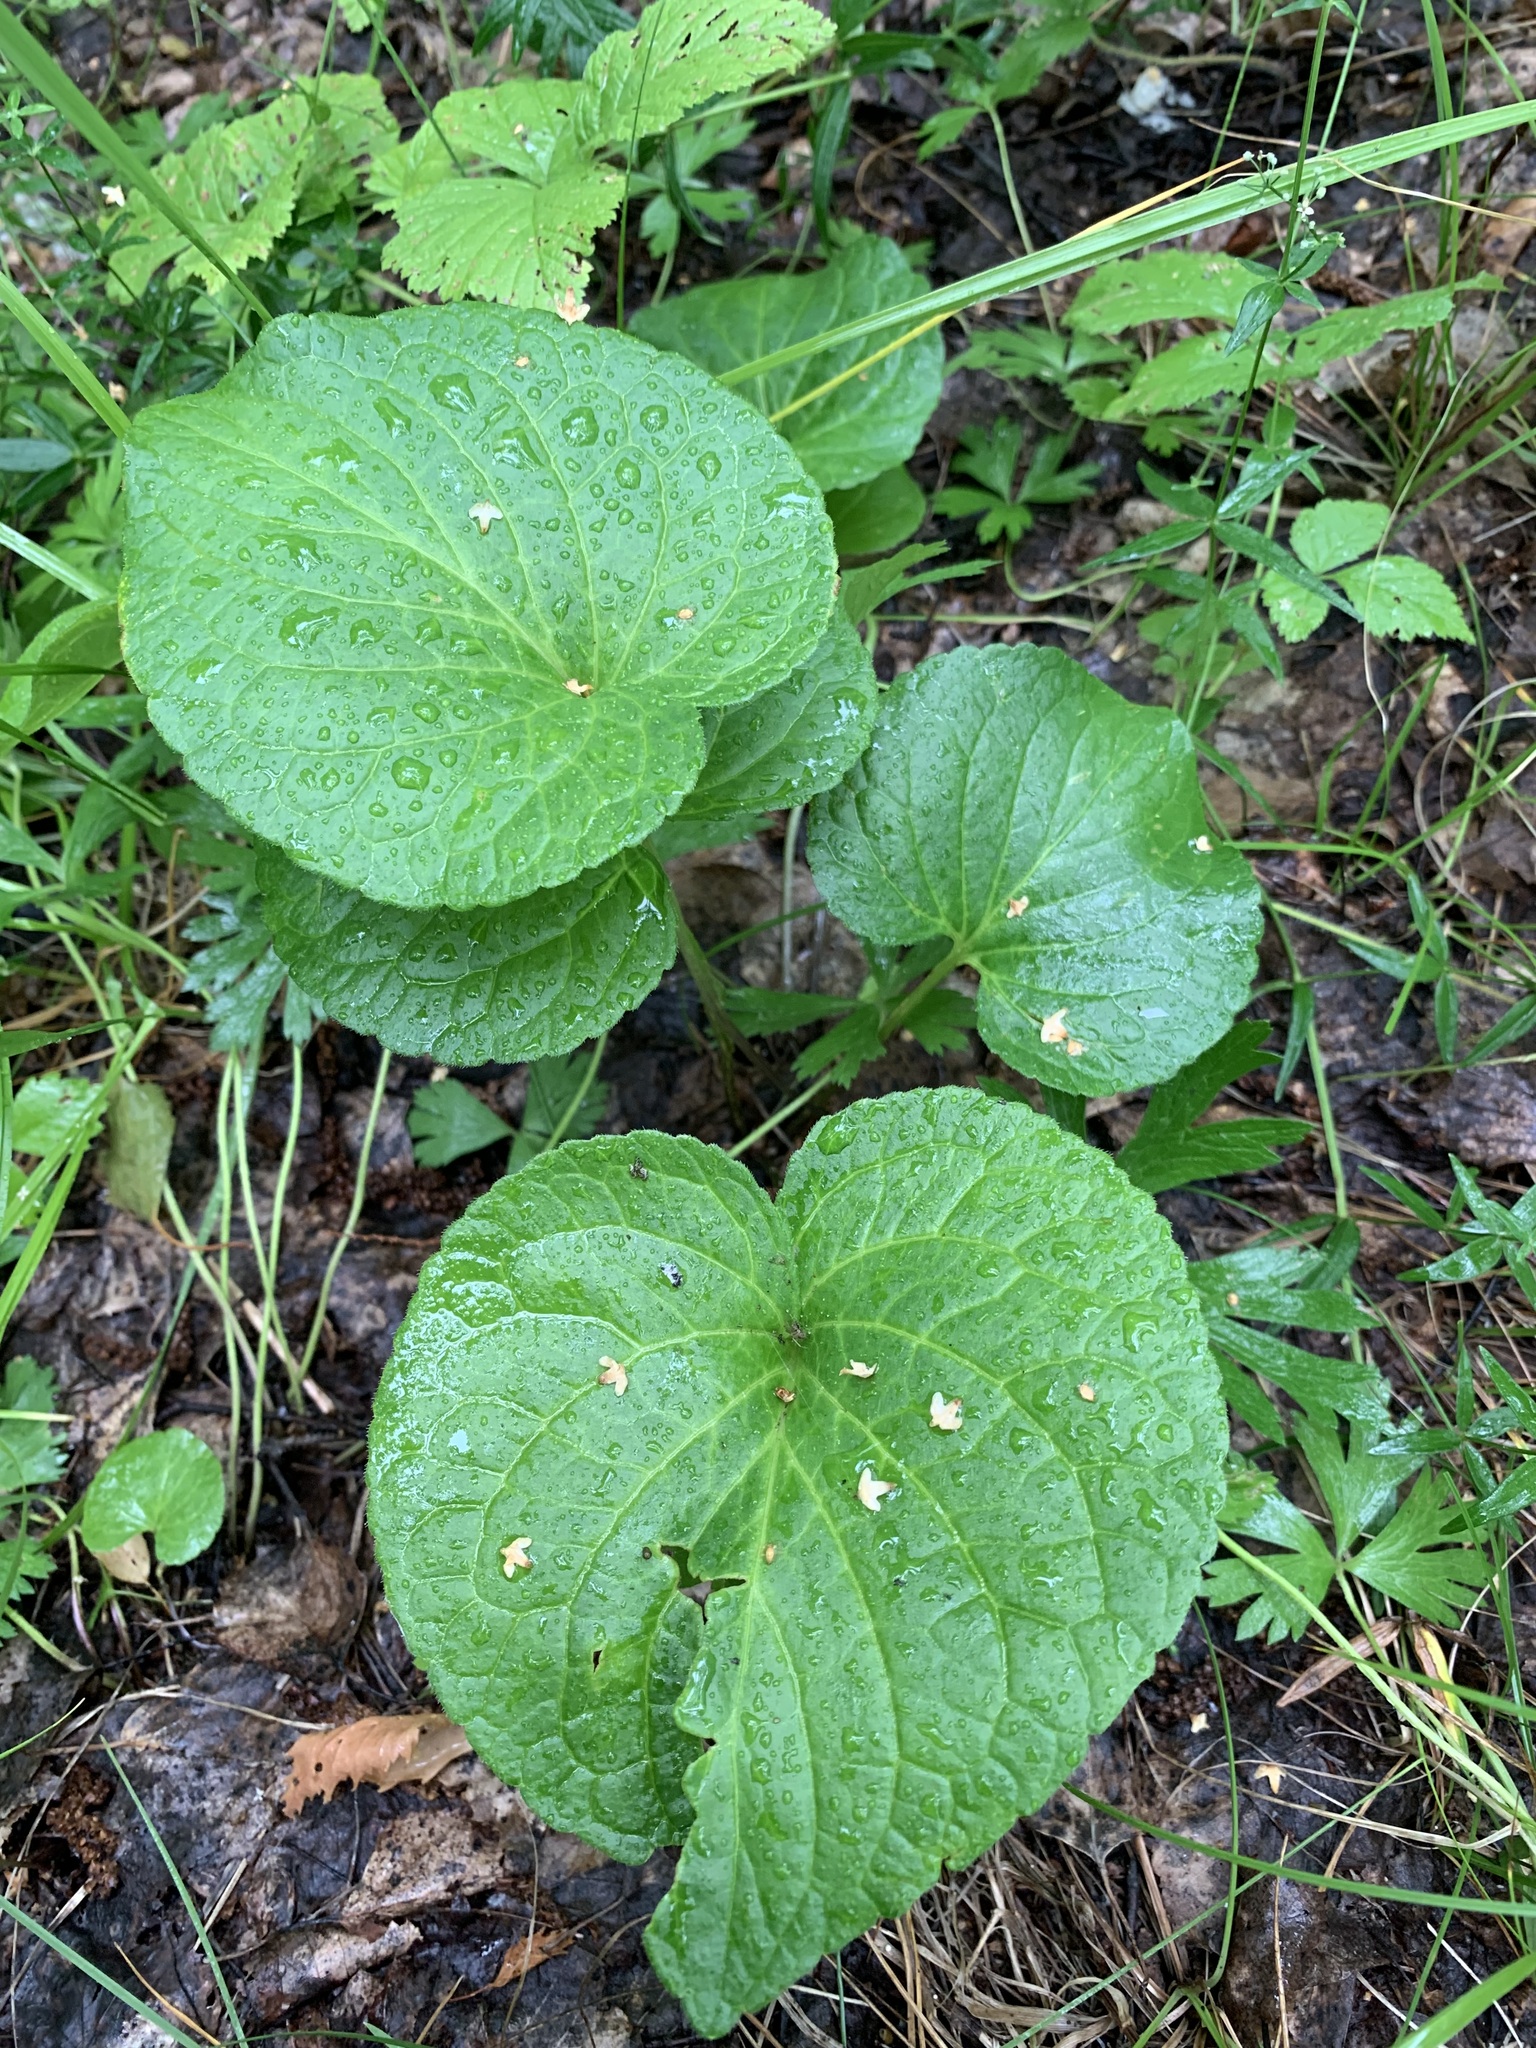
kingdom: Plantae
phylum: Tracheophyta
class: Magnoliopsida
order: Malpighiales
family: Violaceae
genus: Viola
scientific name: Viola mirabilis
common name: Wonder violet
